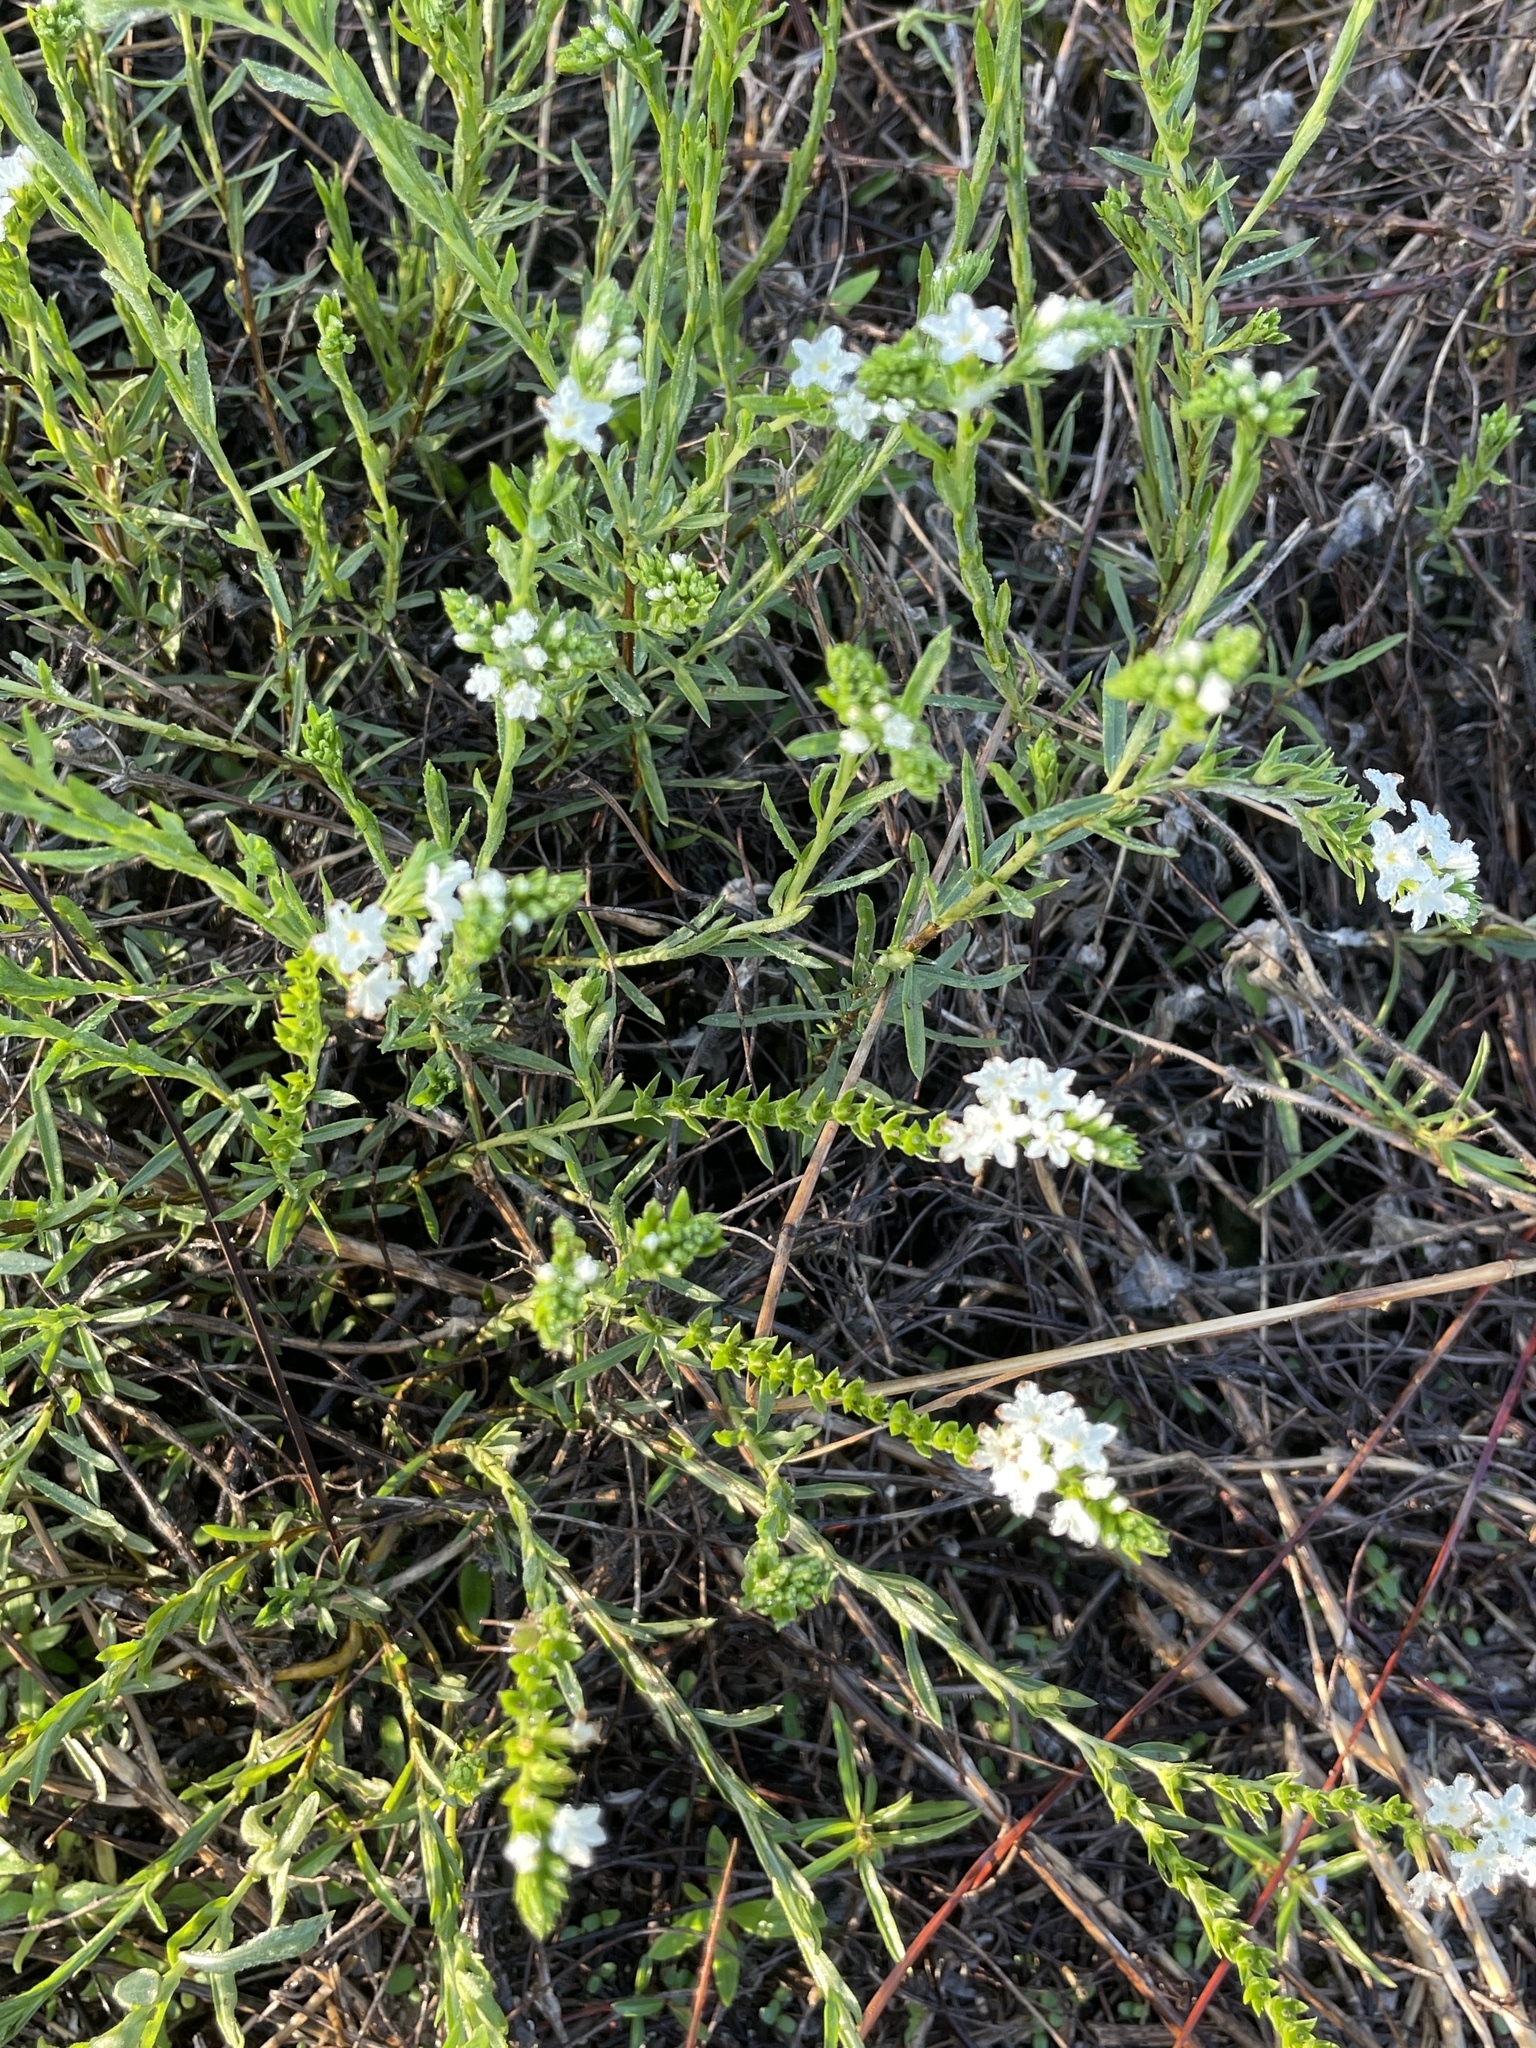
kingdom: Plantae
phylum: Tracheophyta
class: Magnoliopsida
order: Boraginales
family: Heliotropiaceae
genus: Euploca
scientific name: Euploca polyphylla
